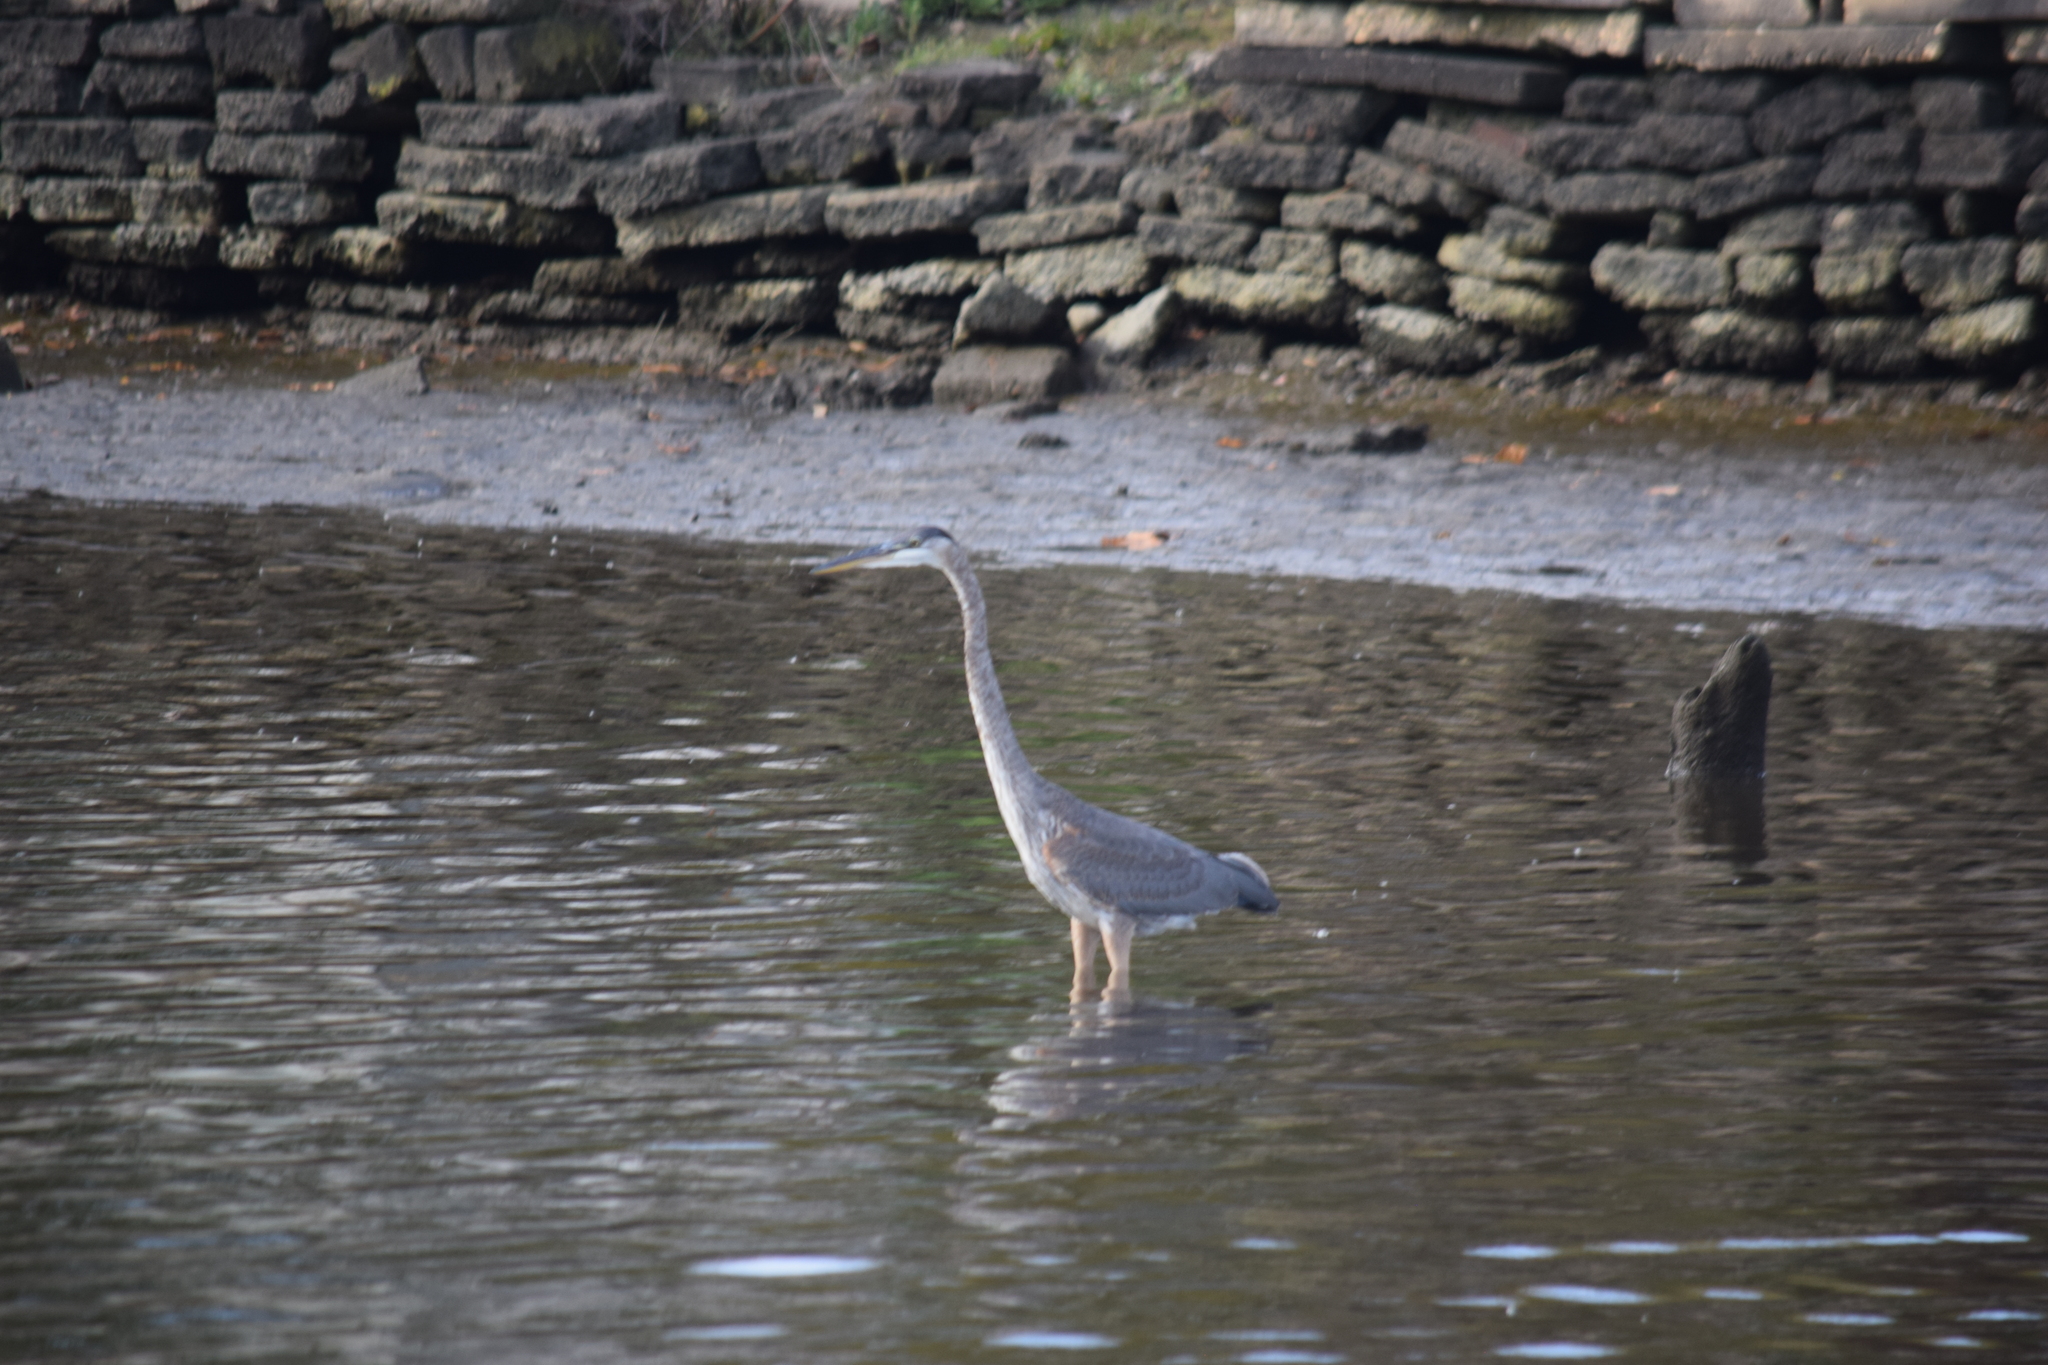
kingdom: Animalia
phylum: Chordata
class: Aves
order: Pelecaniformes
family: Ardeidae
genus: Ardea
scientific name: Ardea herodias
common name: Great blue heron
